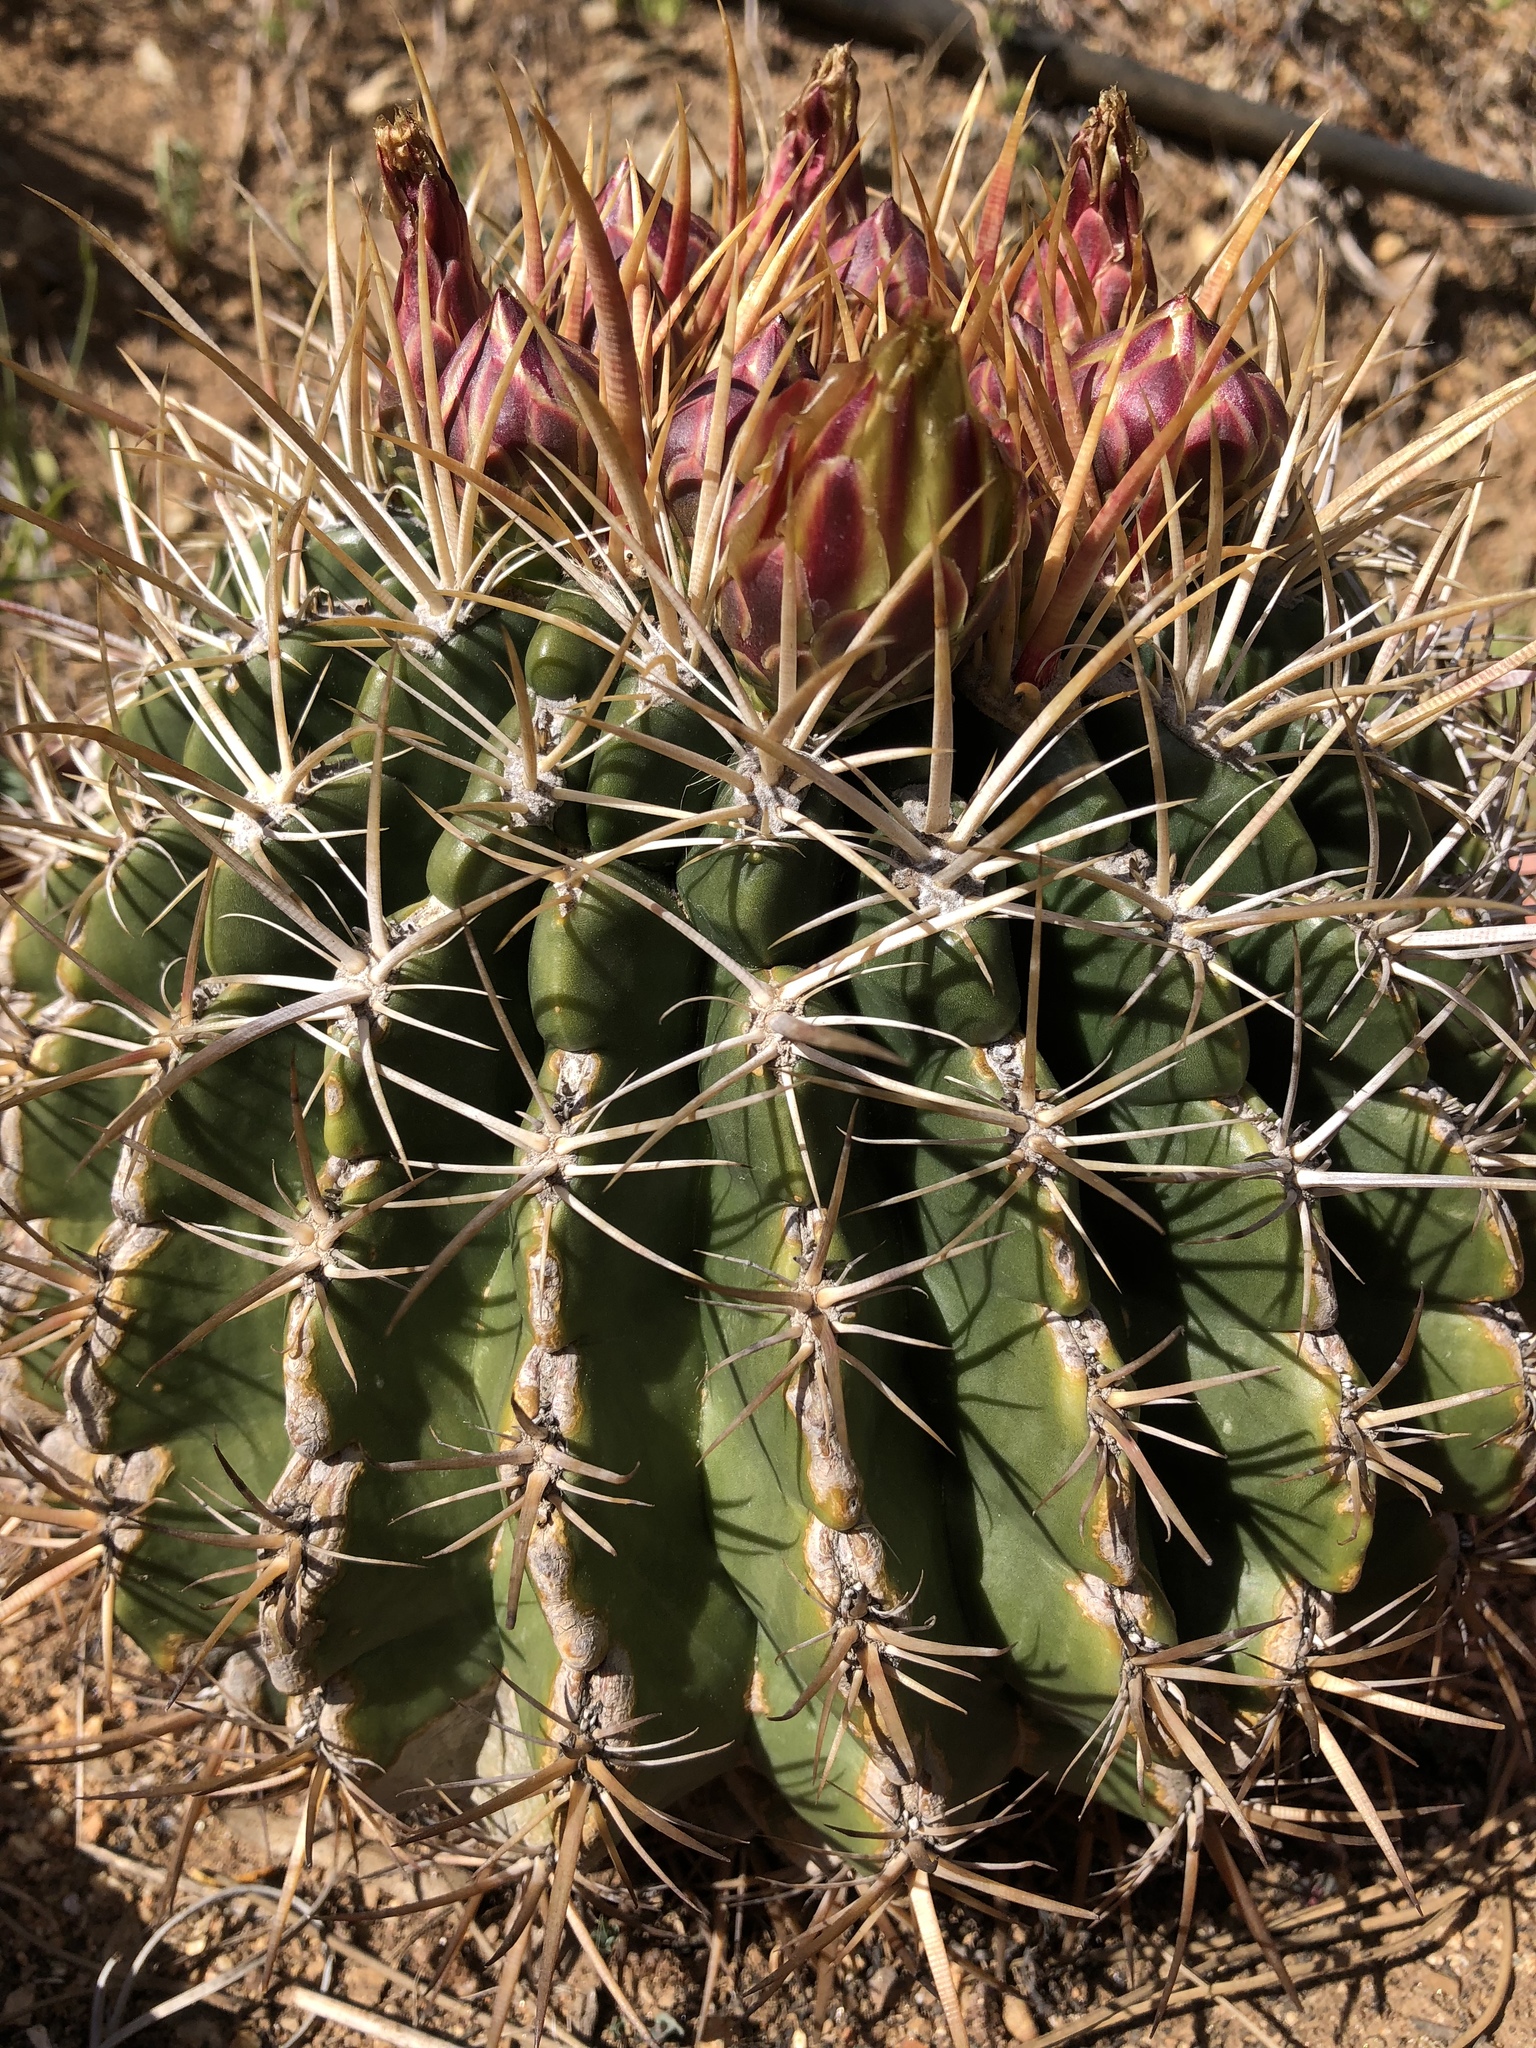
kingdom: Plantae
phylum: Tracheophyta
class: Magnoliopsida
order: Caryophyllales
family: Cactaceae
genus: Ferocactus
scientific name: Ferocactus viridescens
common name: San diego barrel cactus
